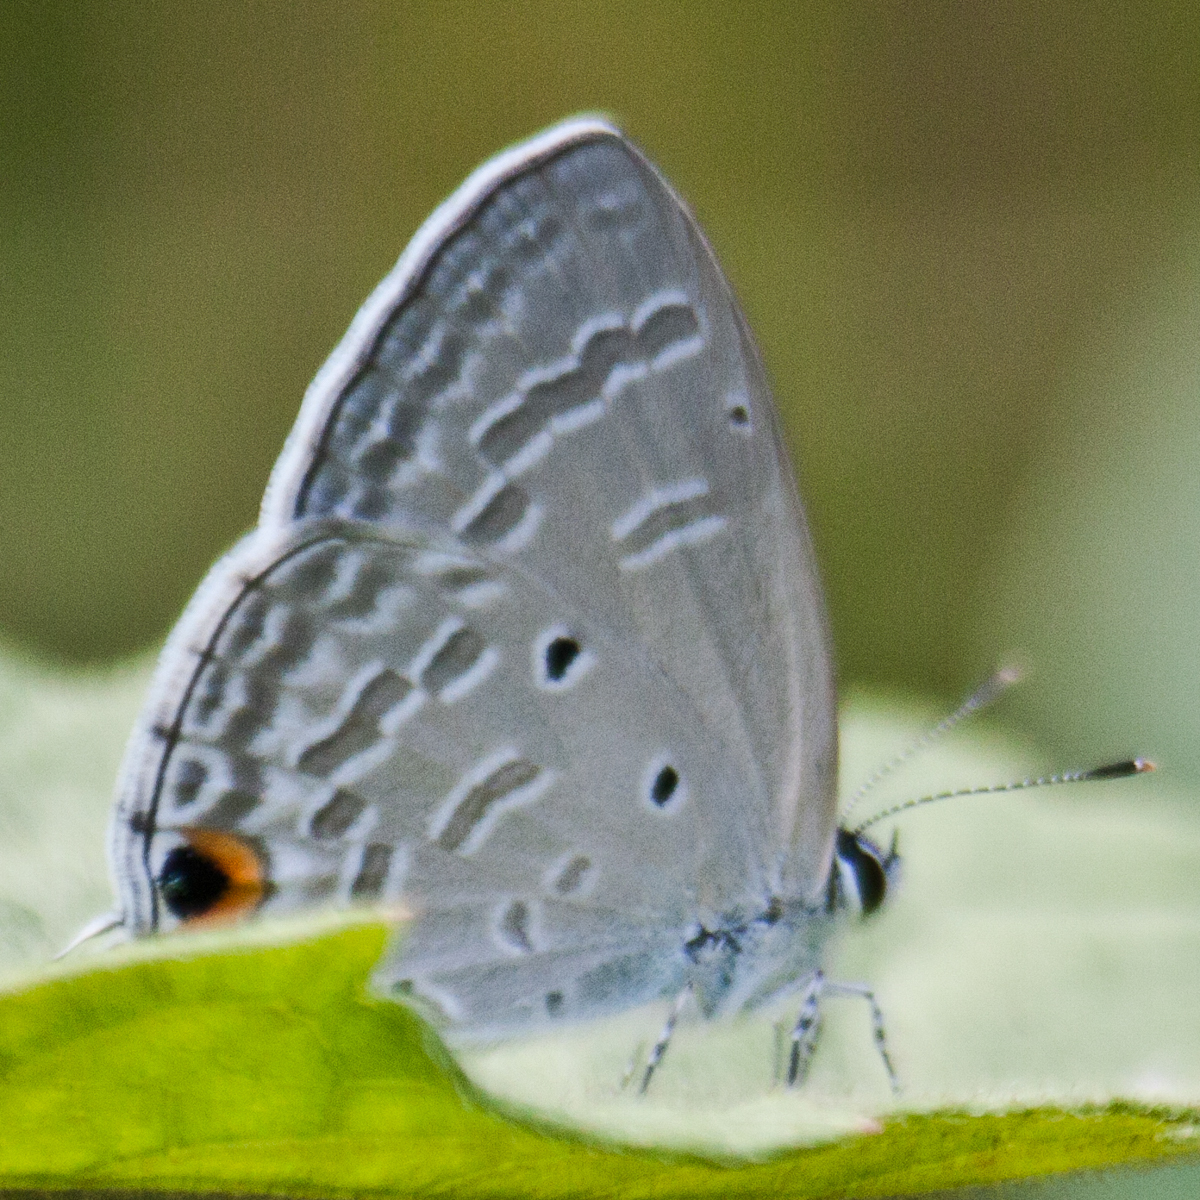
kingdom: Animalia
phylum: Arthropoda
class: Insecta
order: Lepidoptera
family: Lycaenidae
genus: Catochrysops
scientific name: Catochrysops strabo
